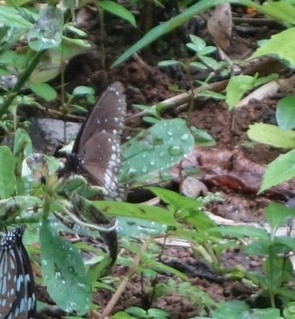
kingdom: Animalia
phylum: Arthropoda
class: Insecta
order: Lepidoptera
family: Nymphalidae
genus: Euploea
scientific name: Euploea core
